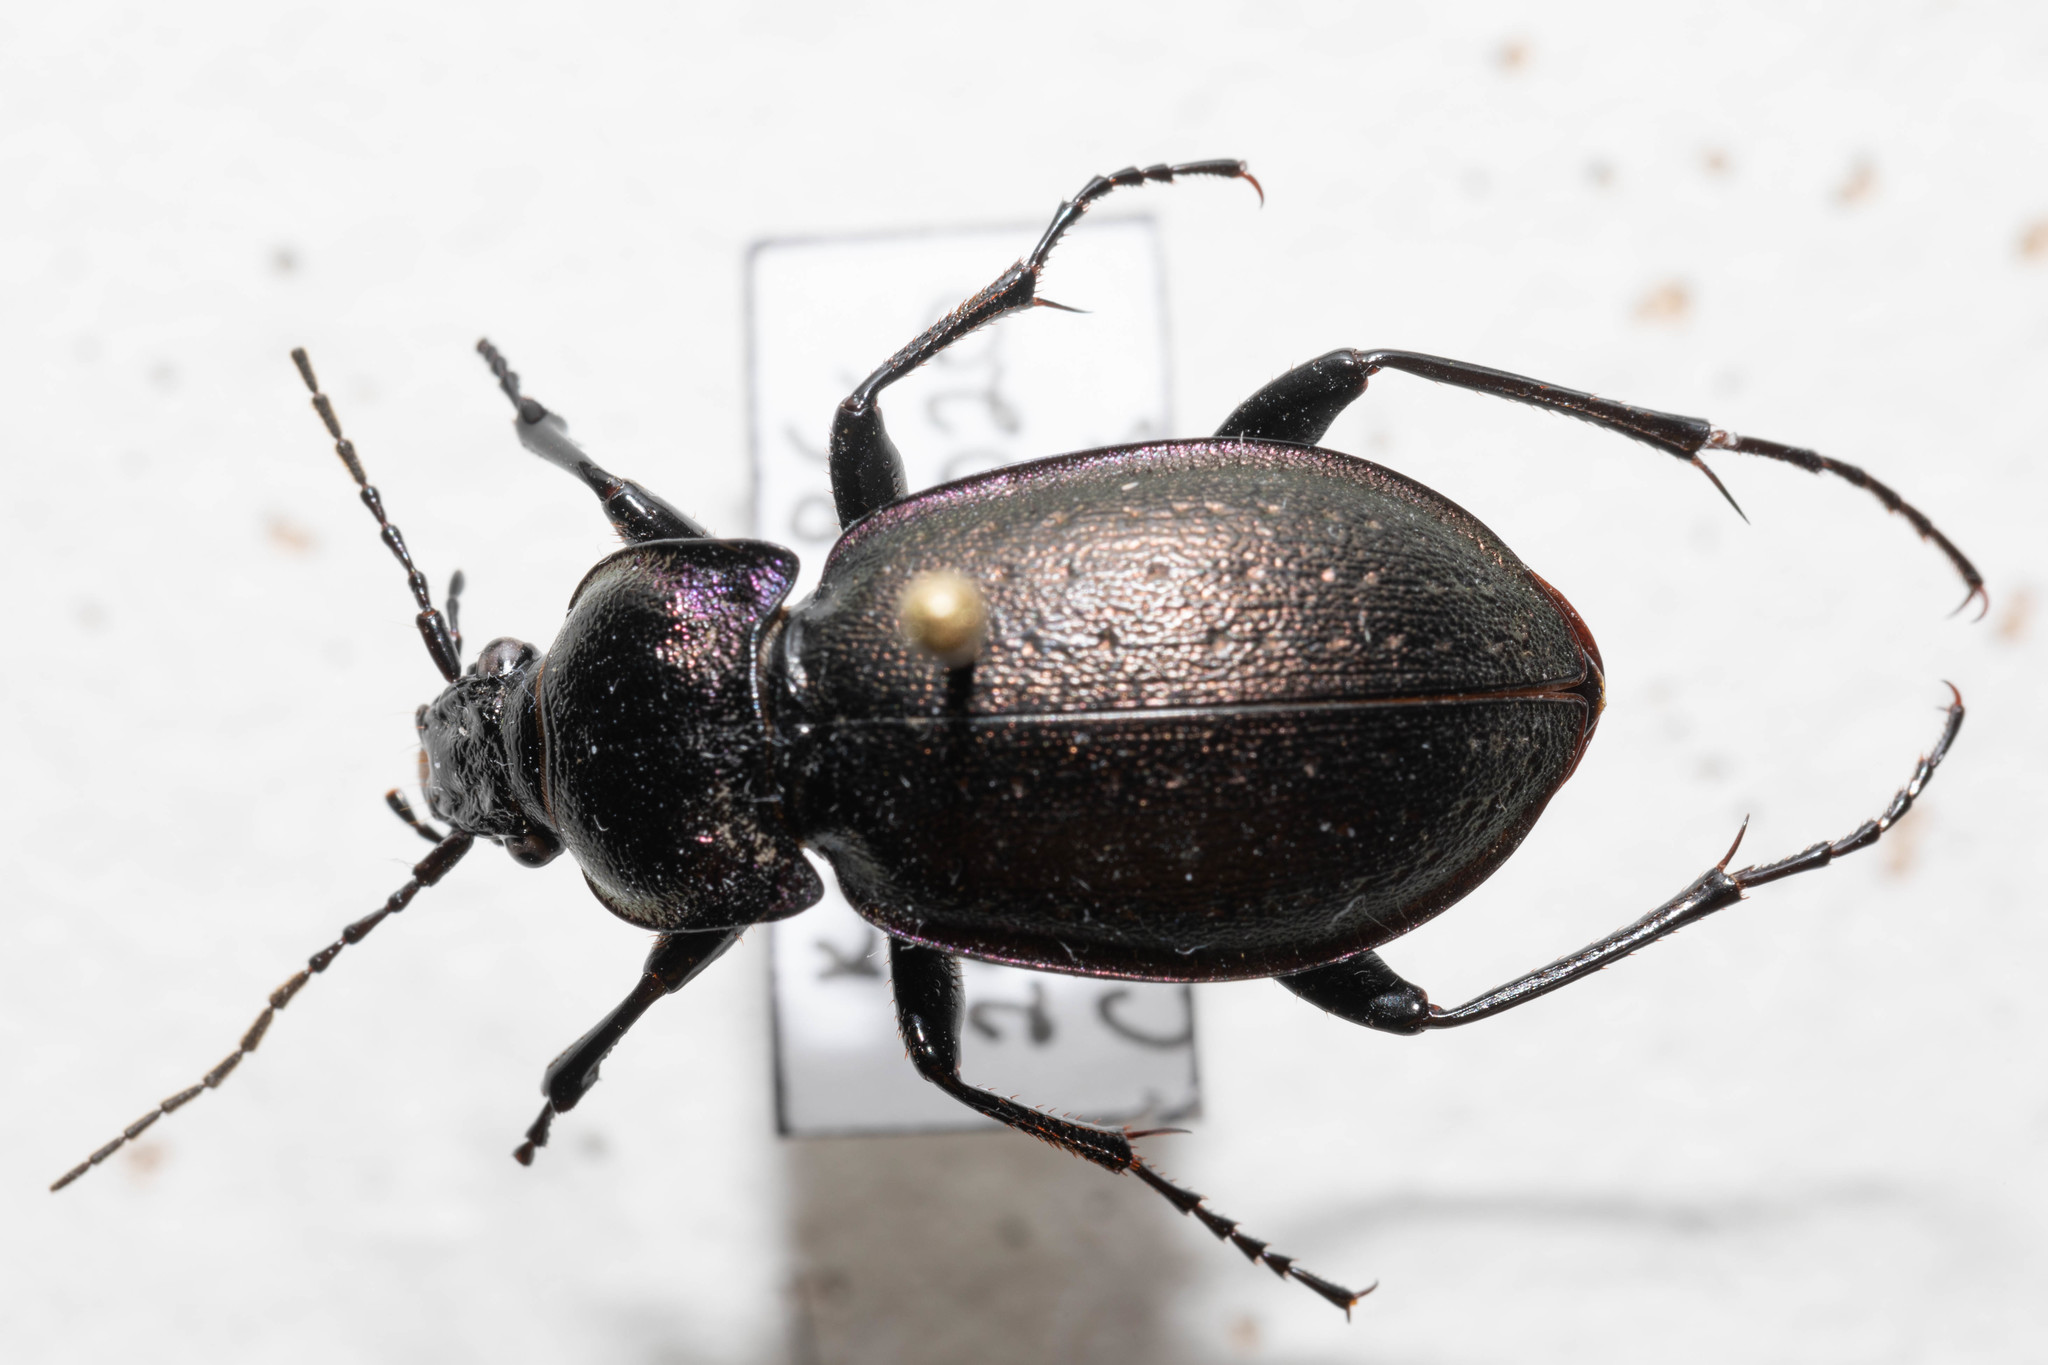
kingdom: Animalia
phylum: Arthropoda
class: Insecta
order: Coleoptera
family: Carabidae
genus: Carabus
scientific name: Carabus nemoralis
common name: European ground beetle
